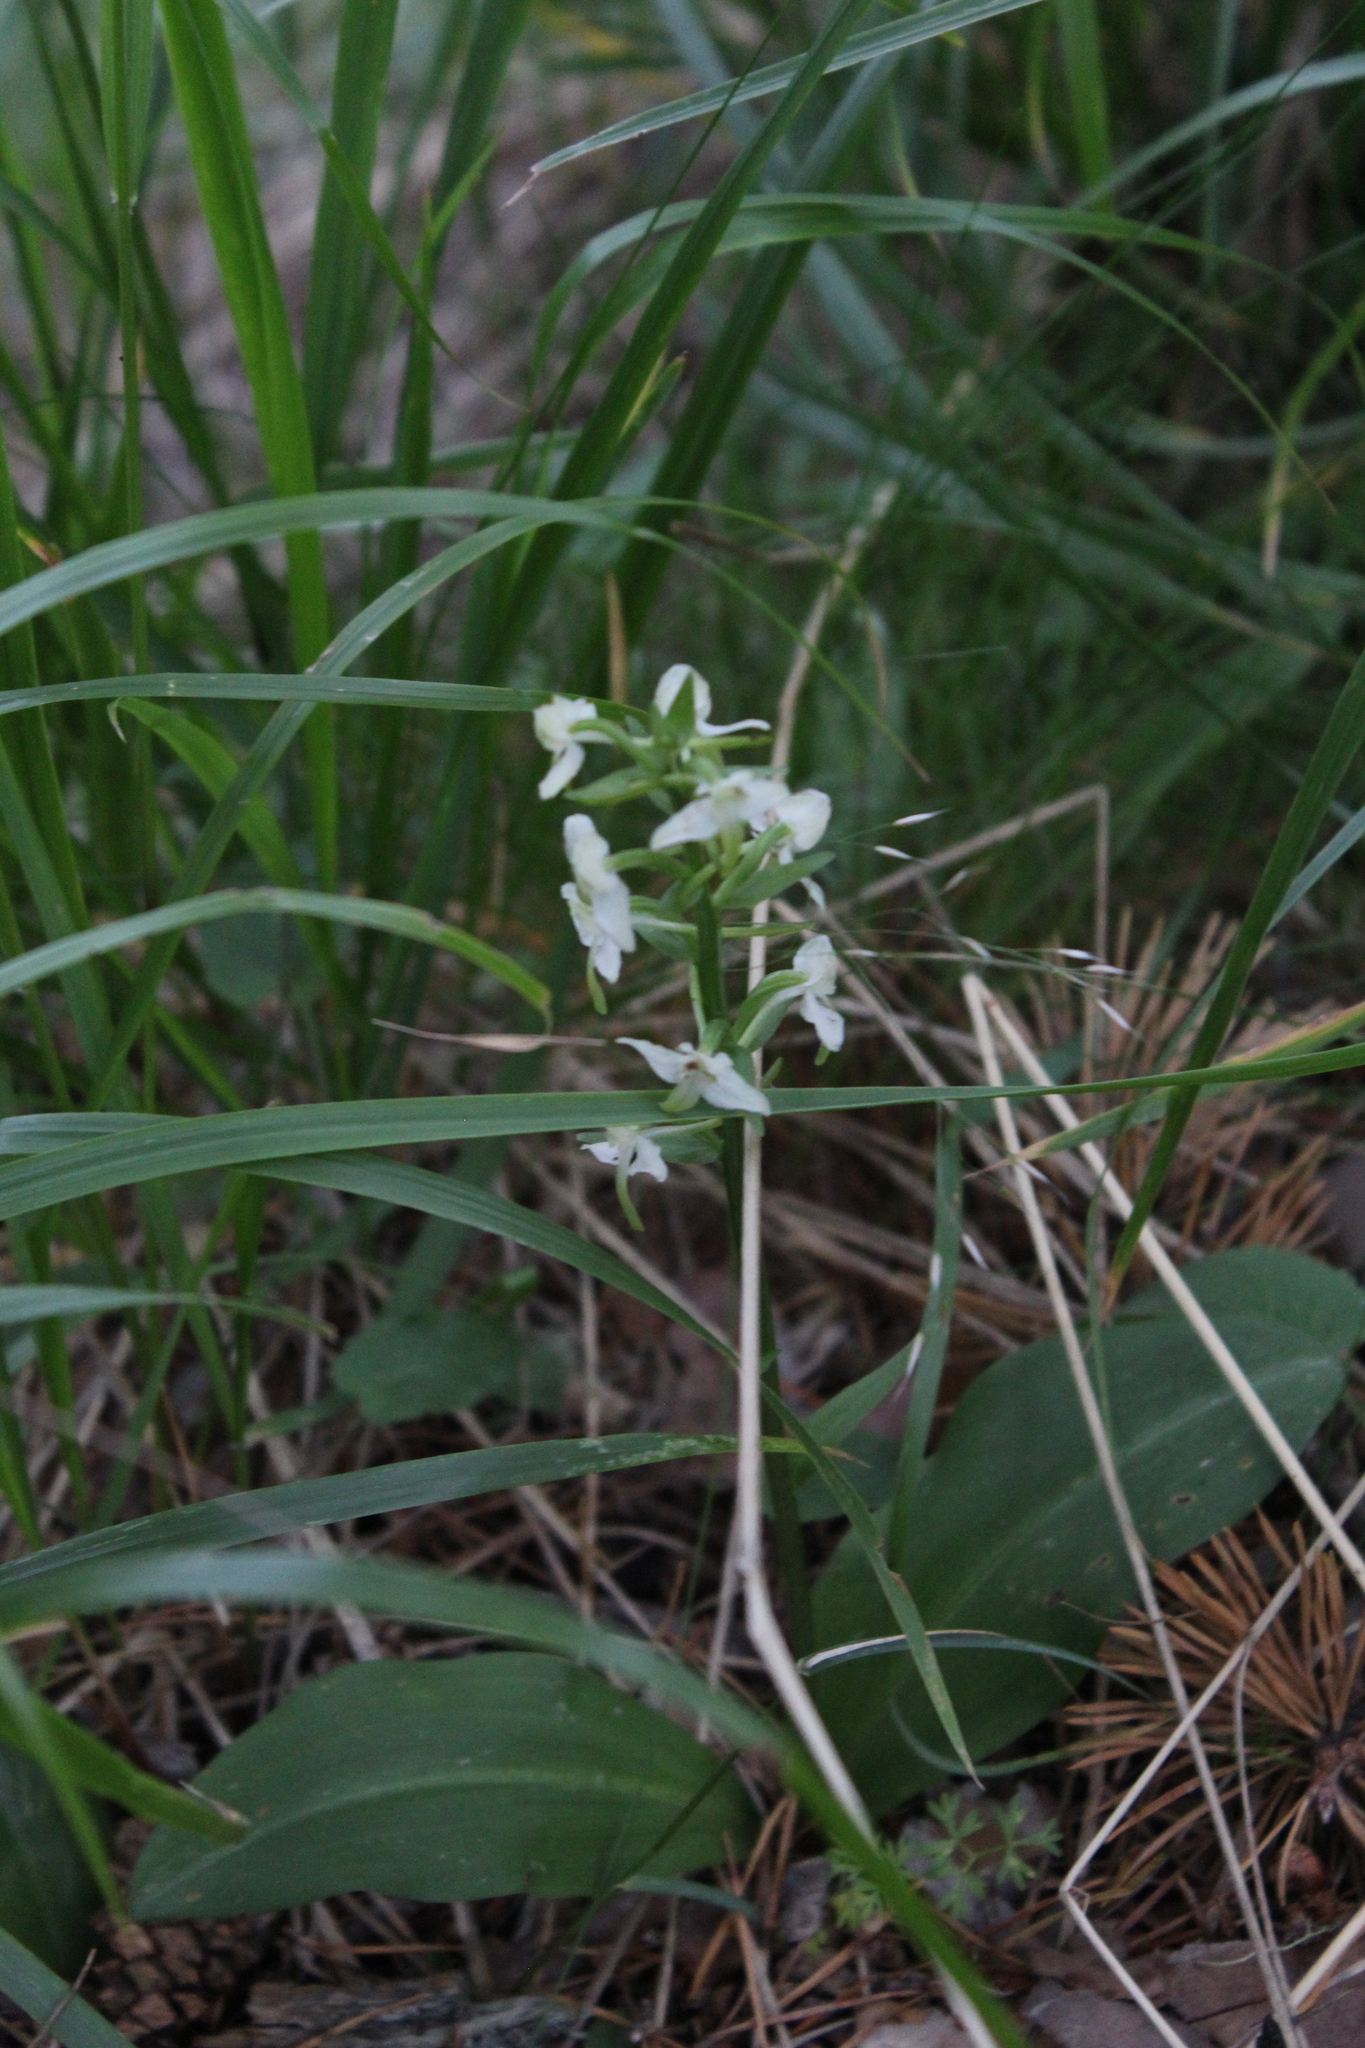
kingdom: Plantae
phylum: Tracheophyta
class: Liliopsida
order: Asparagales
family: Orchidaceae
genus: Platanthera
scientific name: Platanthera chlorantha
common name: Greater butterfly-orchid
